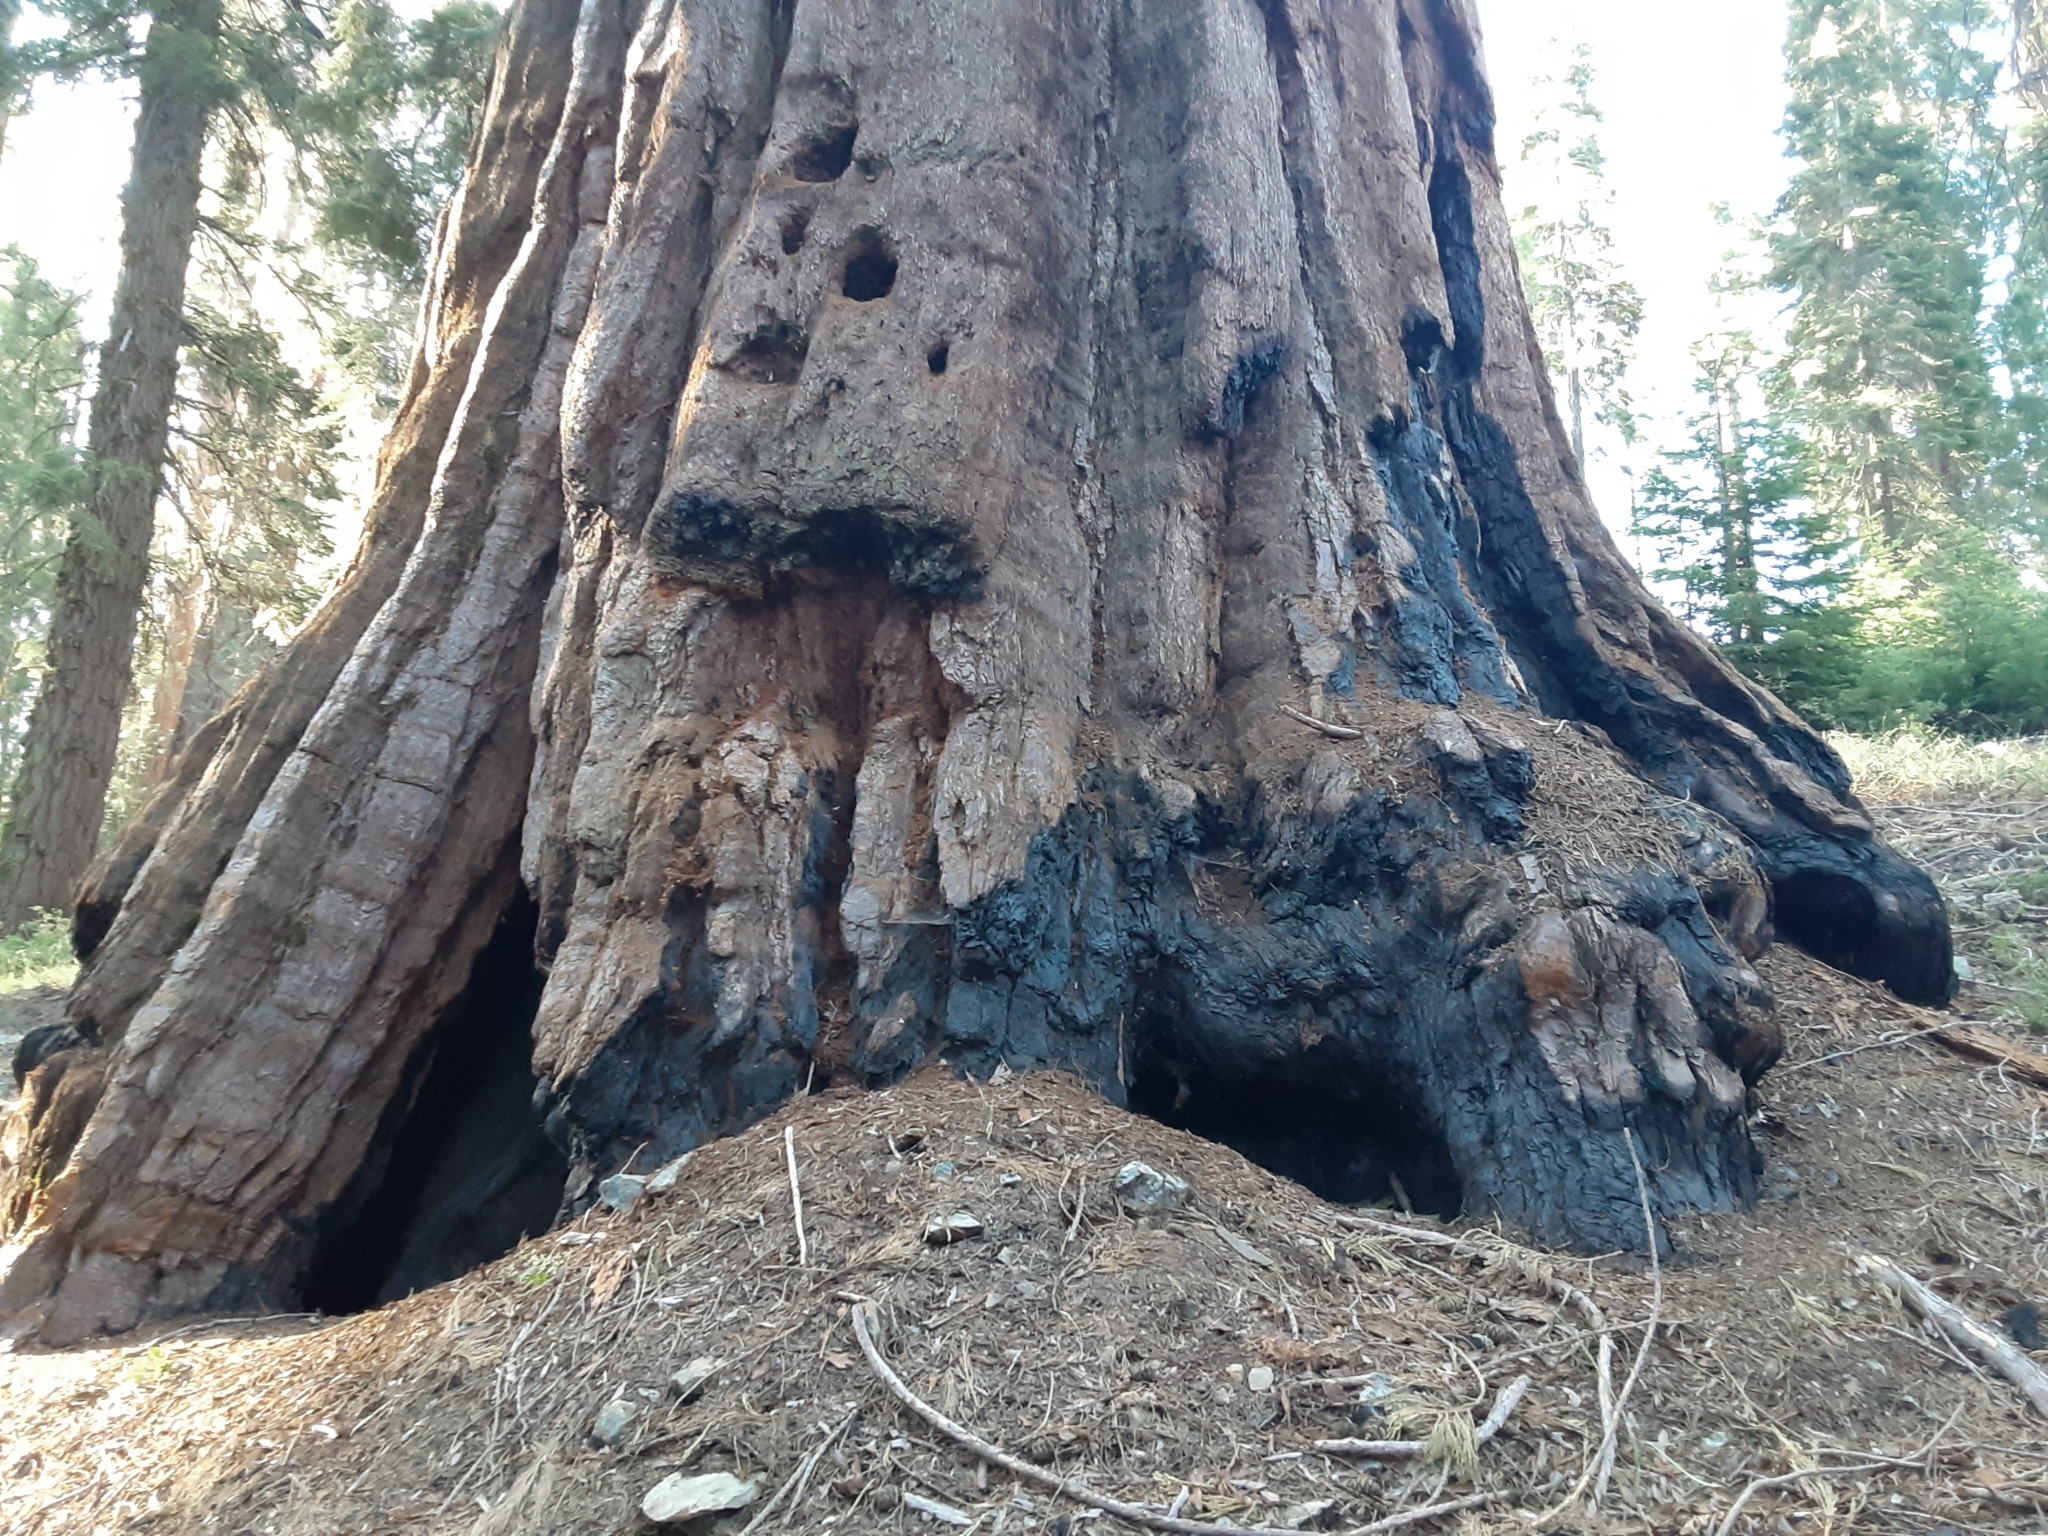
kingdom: Plantae
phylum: Tracheophyta
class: Pinopsida
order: Pinales
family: Cupressaceae
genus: Sequoiadendron
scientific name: Sequoiadendron giganteum
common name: Wellingtonia
